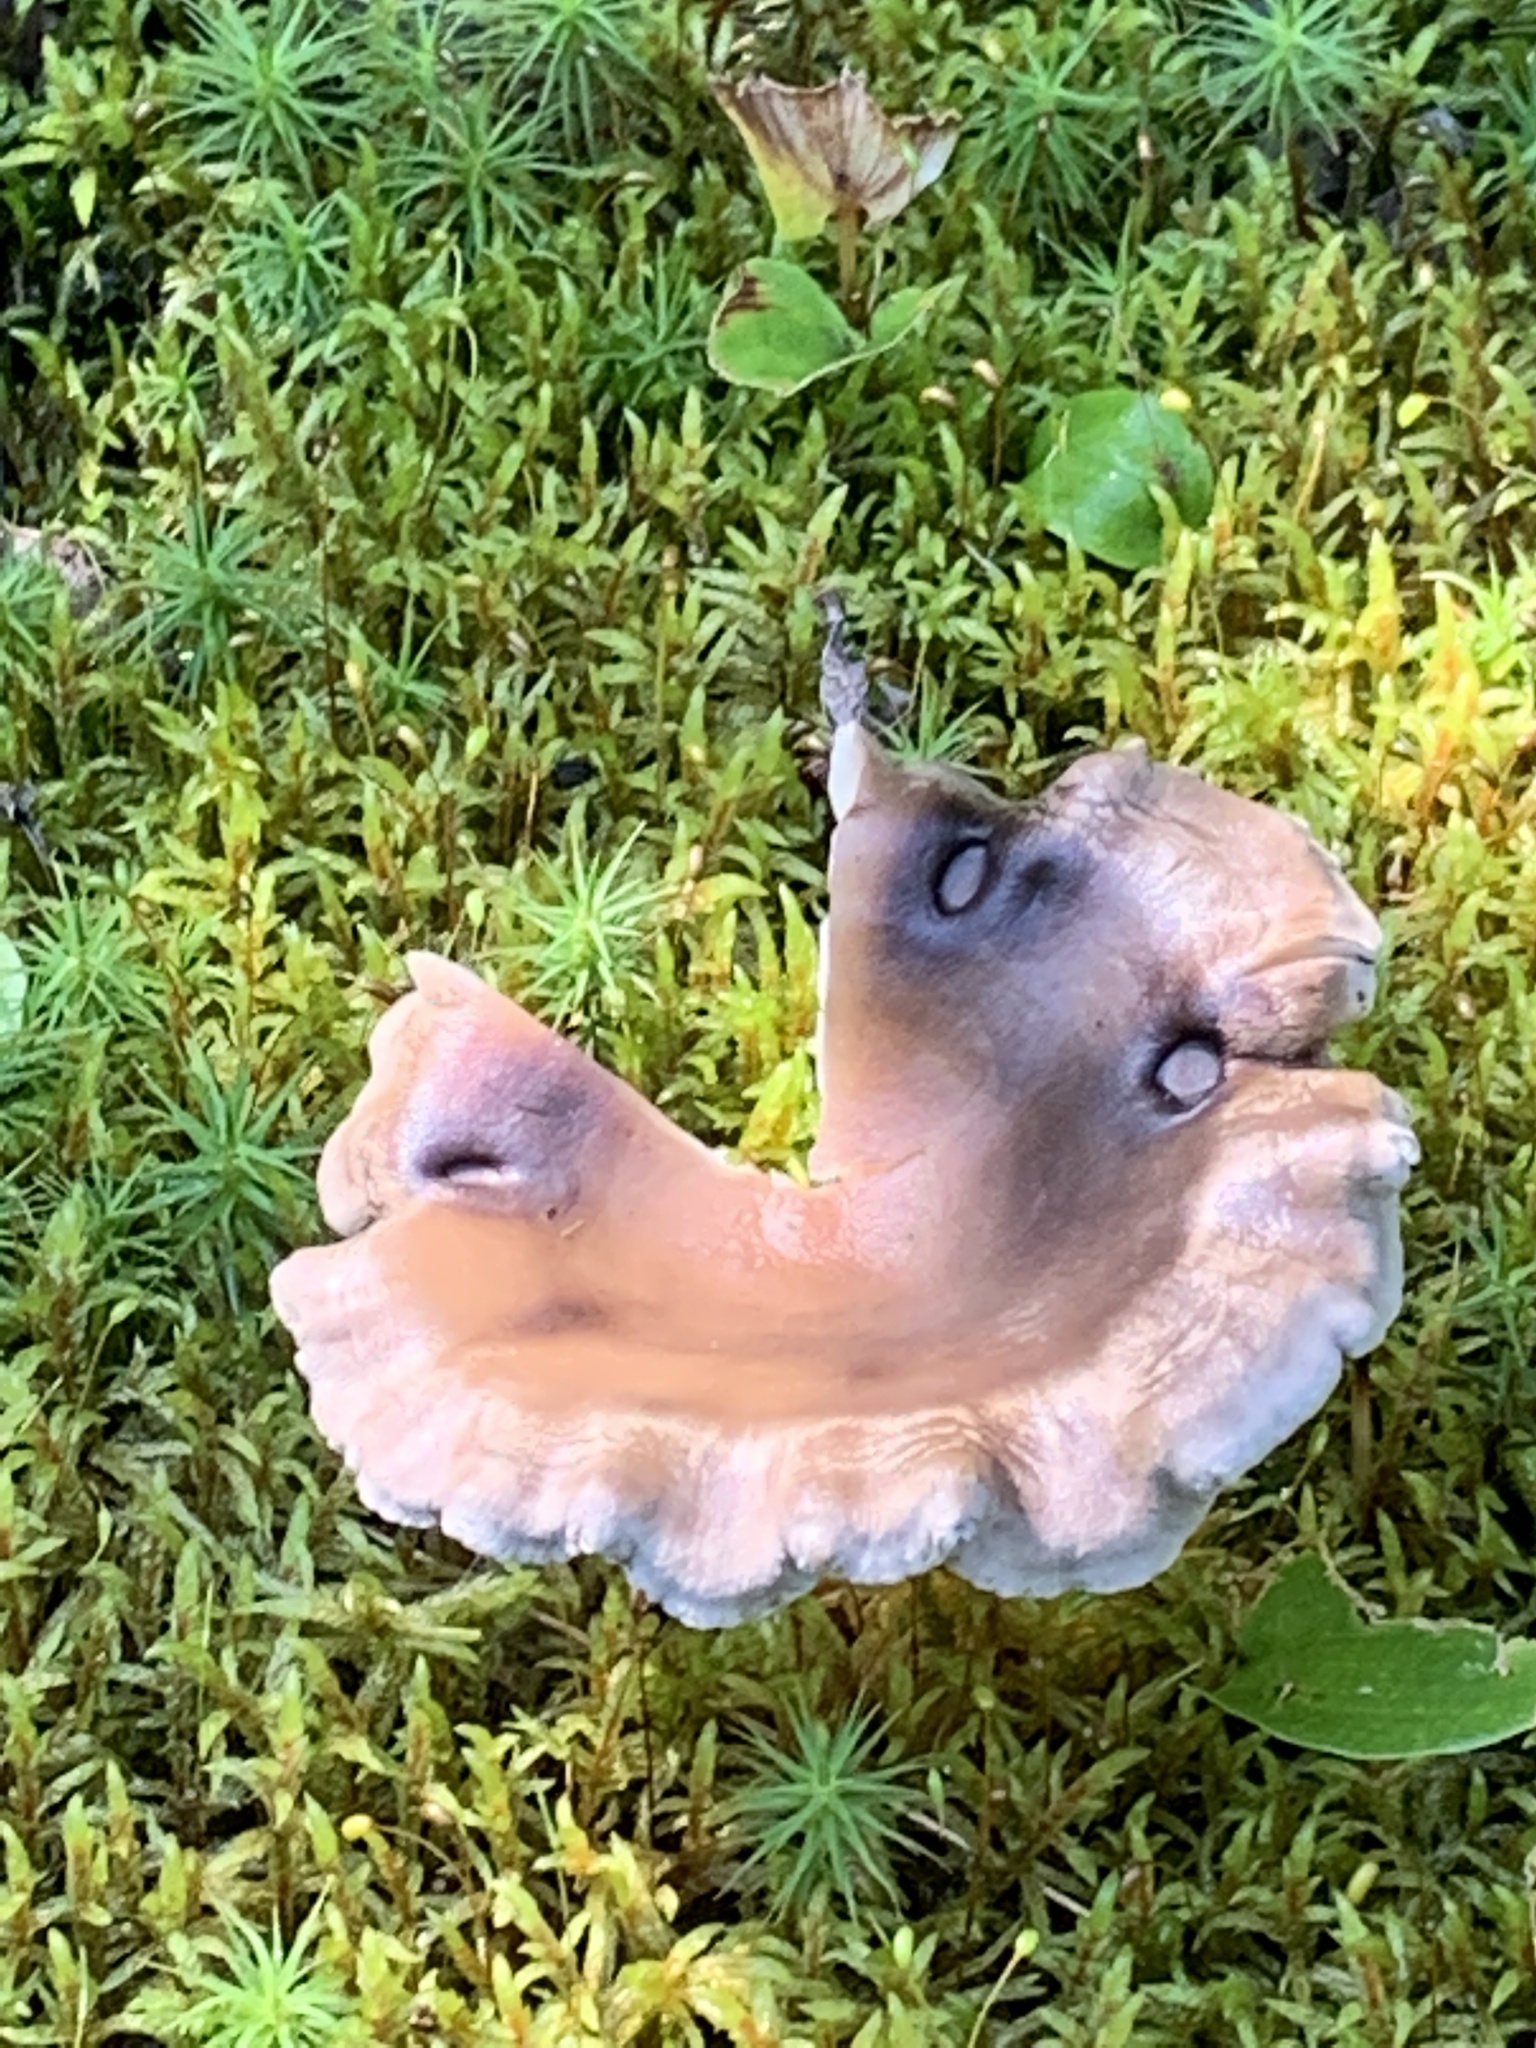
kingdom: Fungi
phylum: Basidiomycota
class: Agaricomycetes
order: Agaricales
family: Hygrophoraceae
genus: Cantharellula
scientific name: Cantharellula umbonata
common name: The humpback
